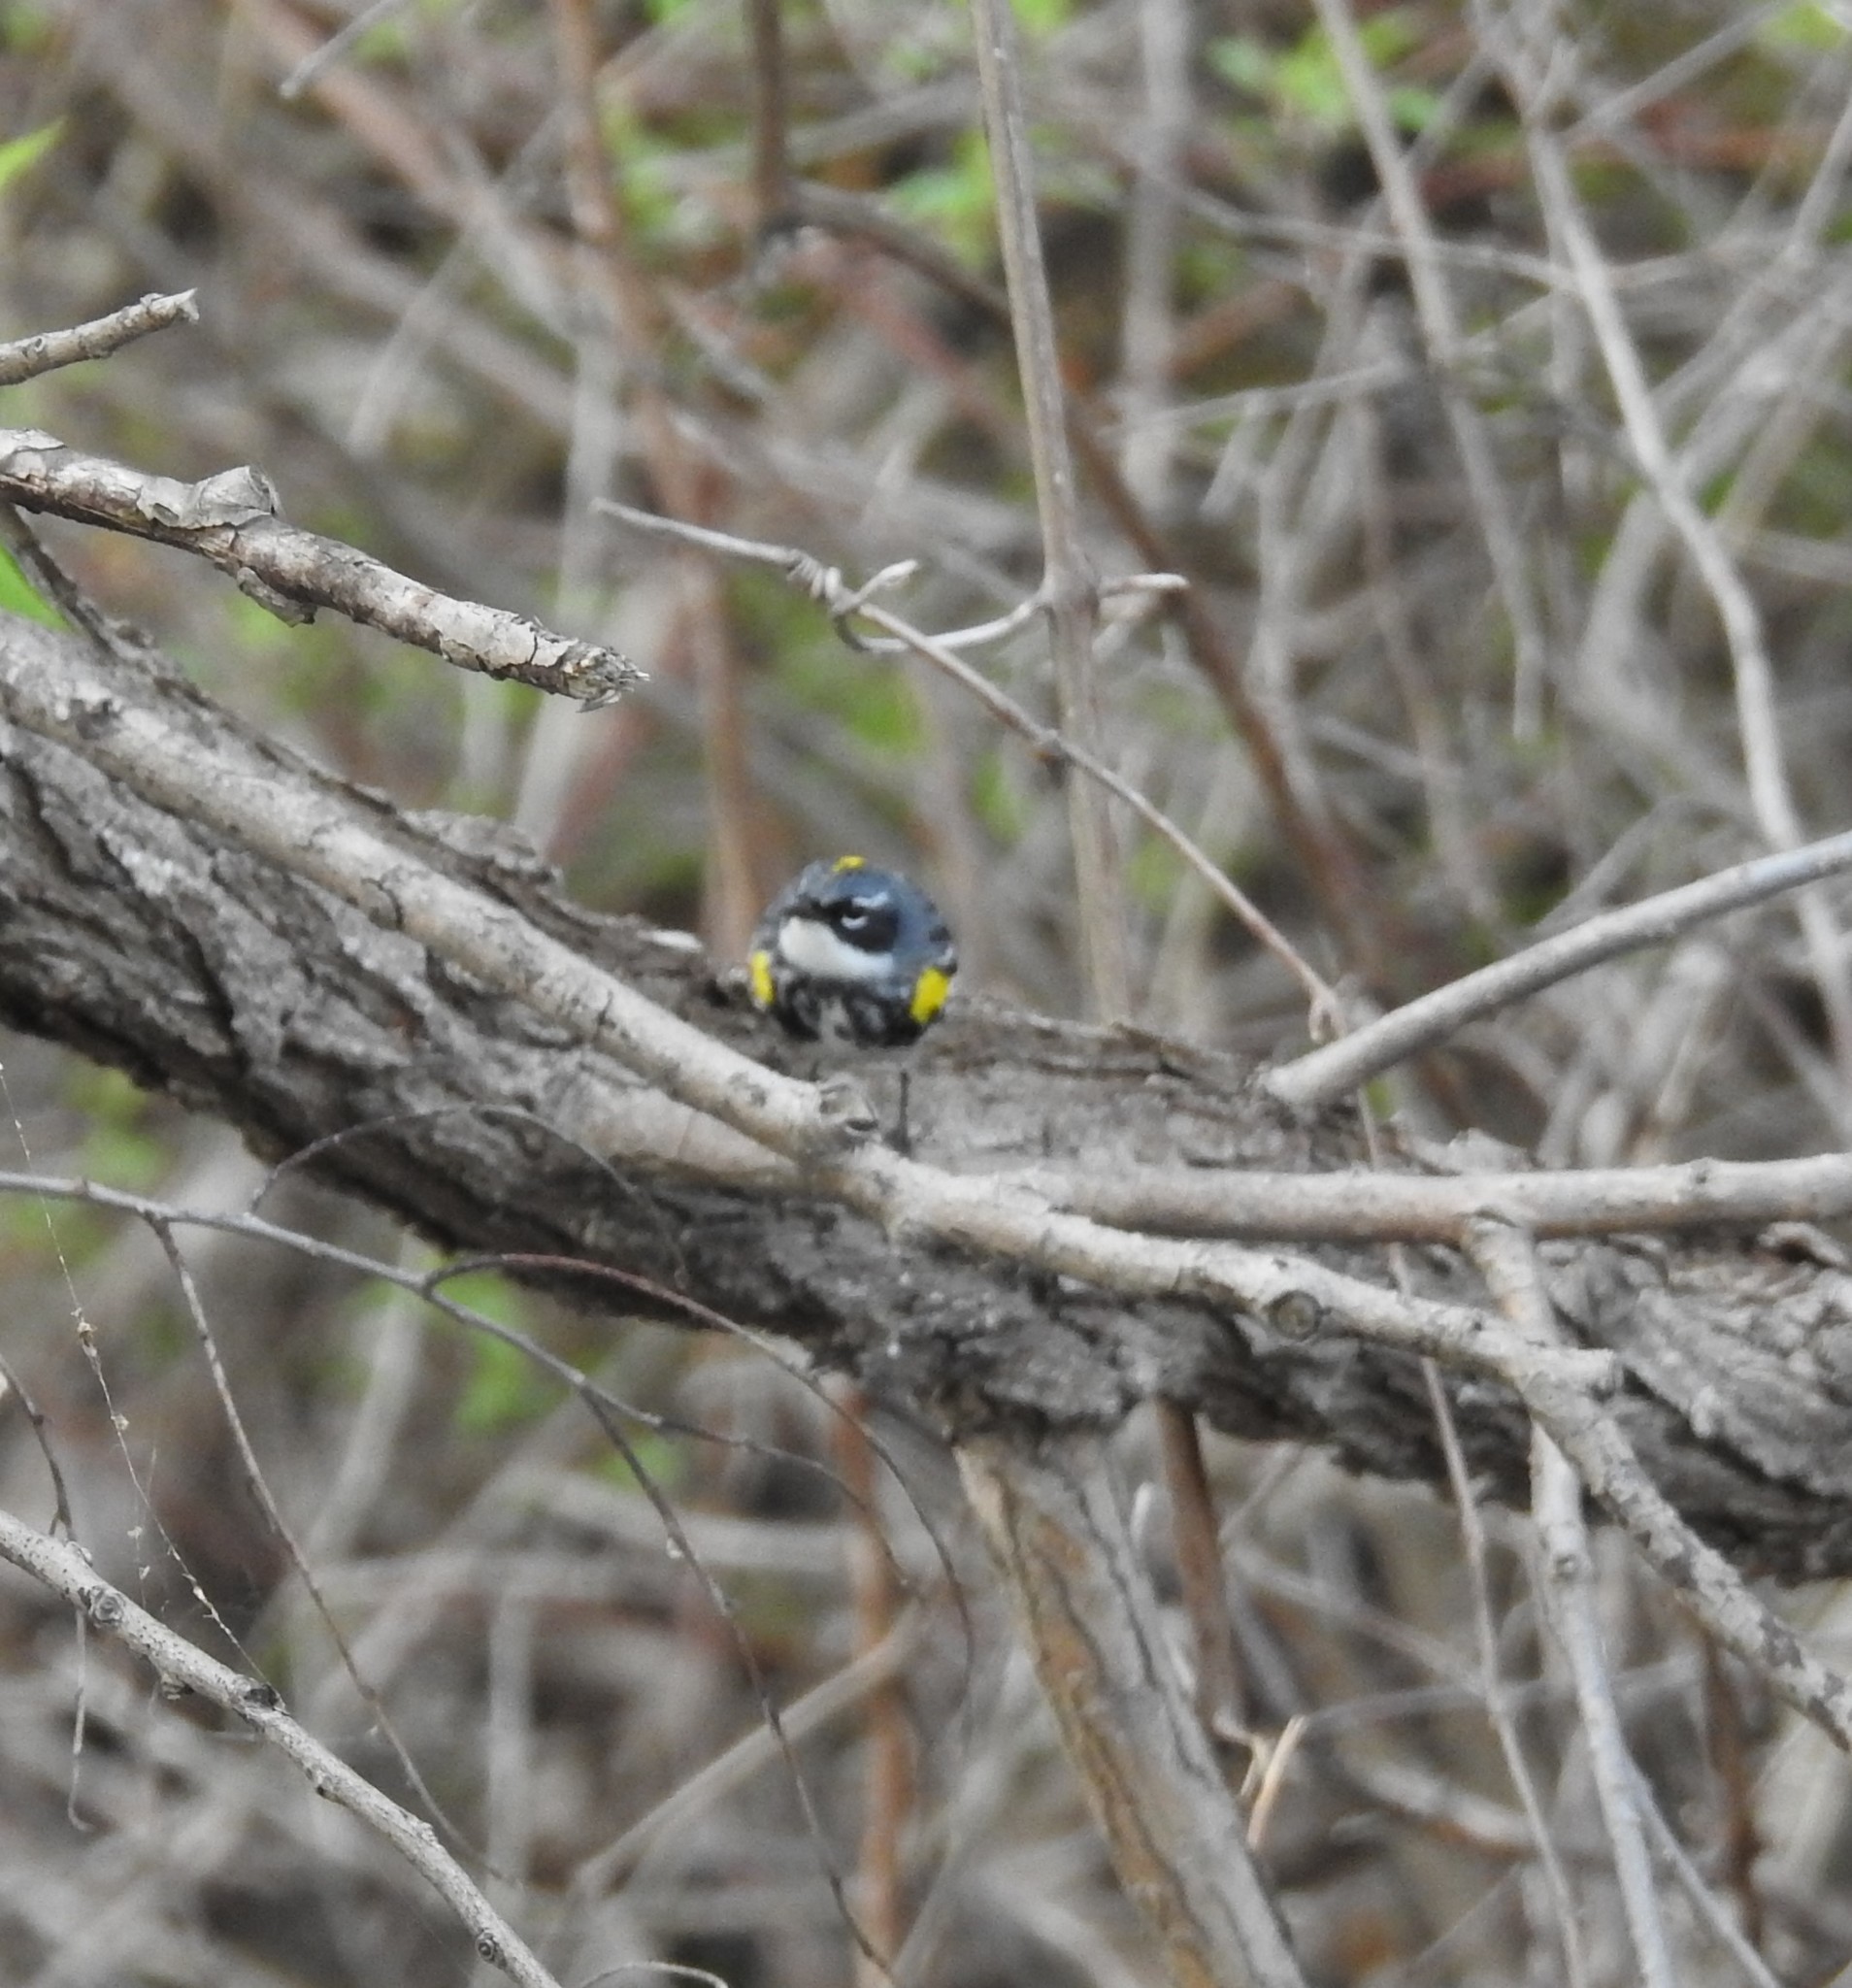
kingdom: Animalia
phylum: Chordata
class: Aves
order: Passeriformes
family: Parulidae
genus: Setophaga
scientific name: Setophaga coronata
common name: Myrtle warbler
